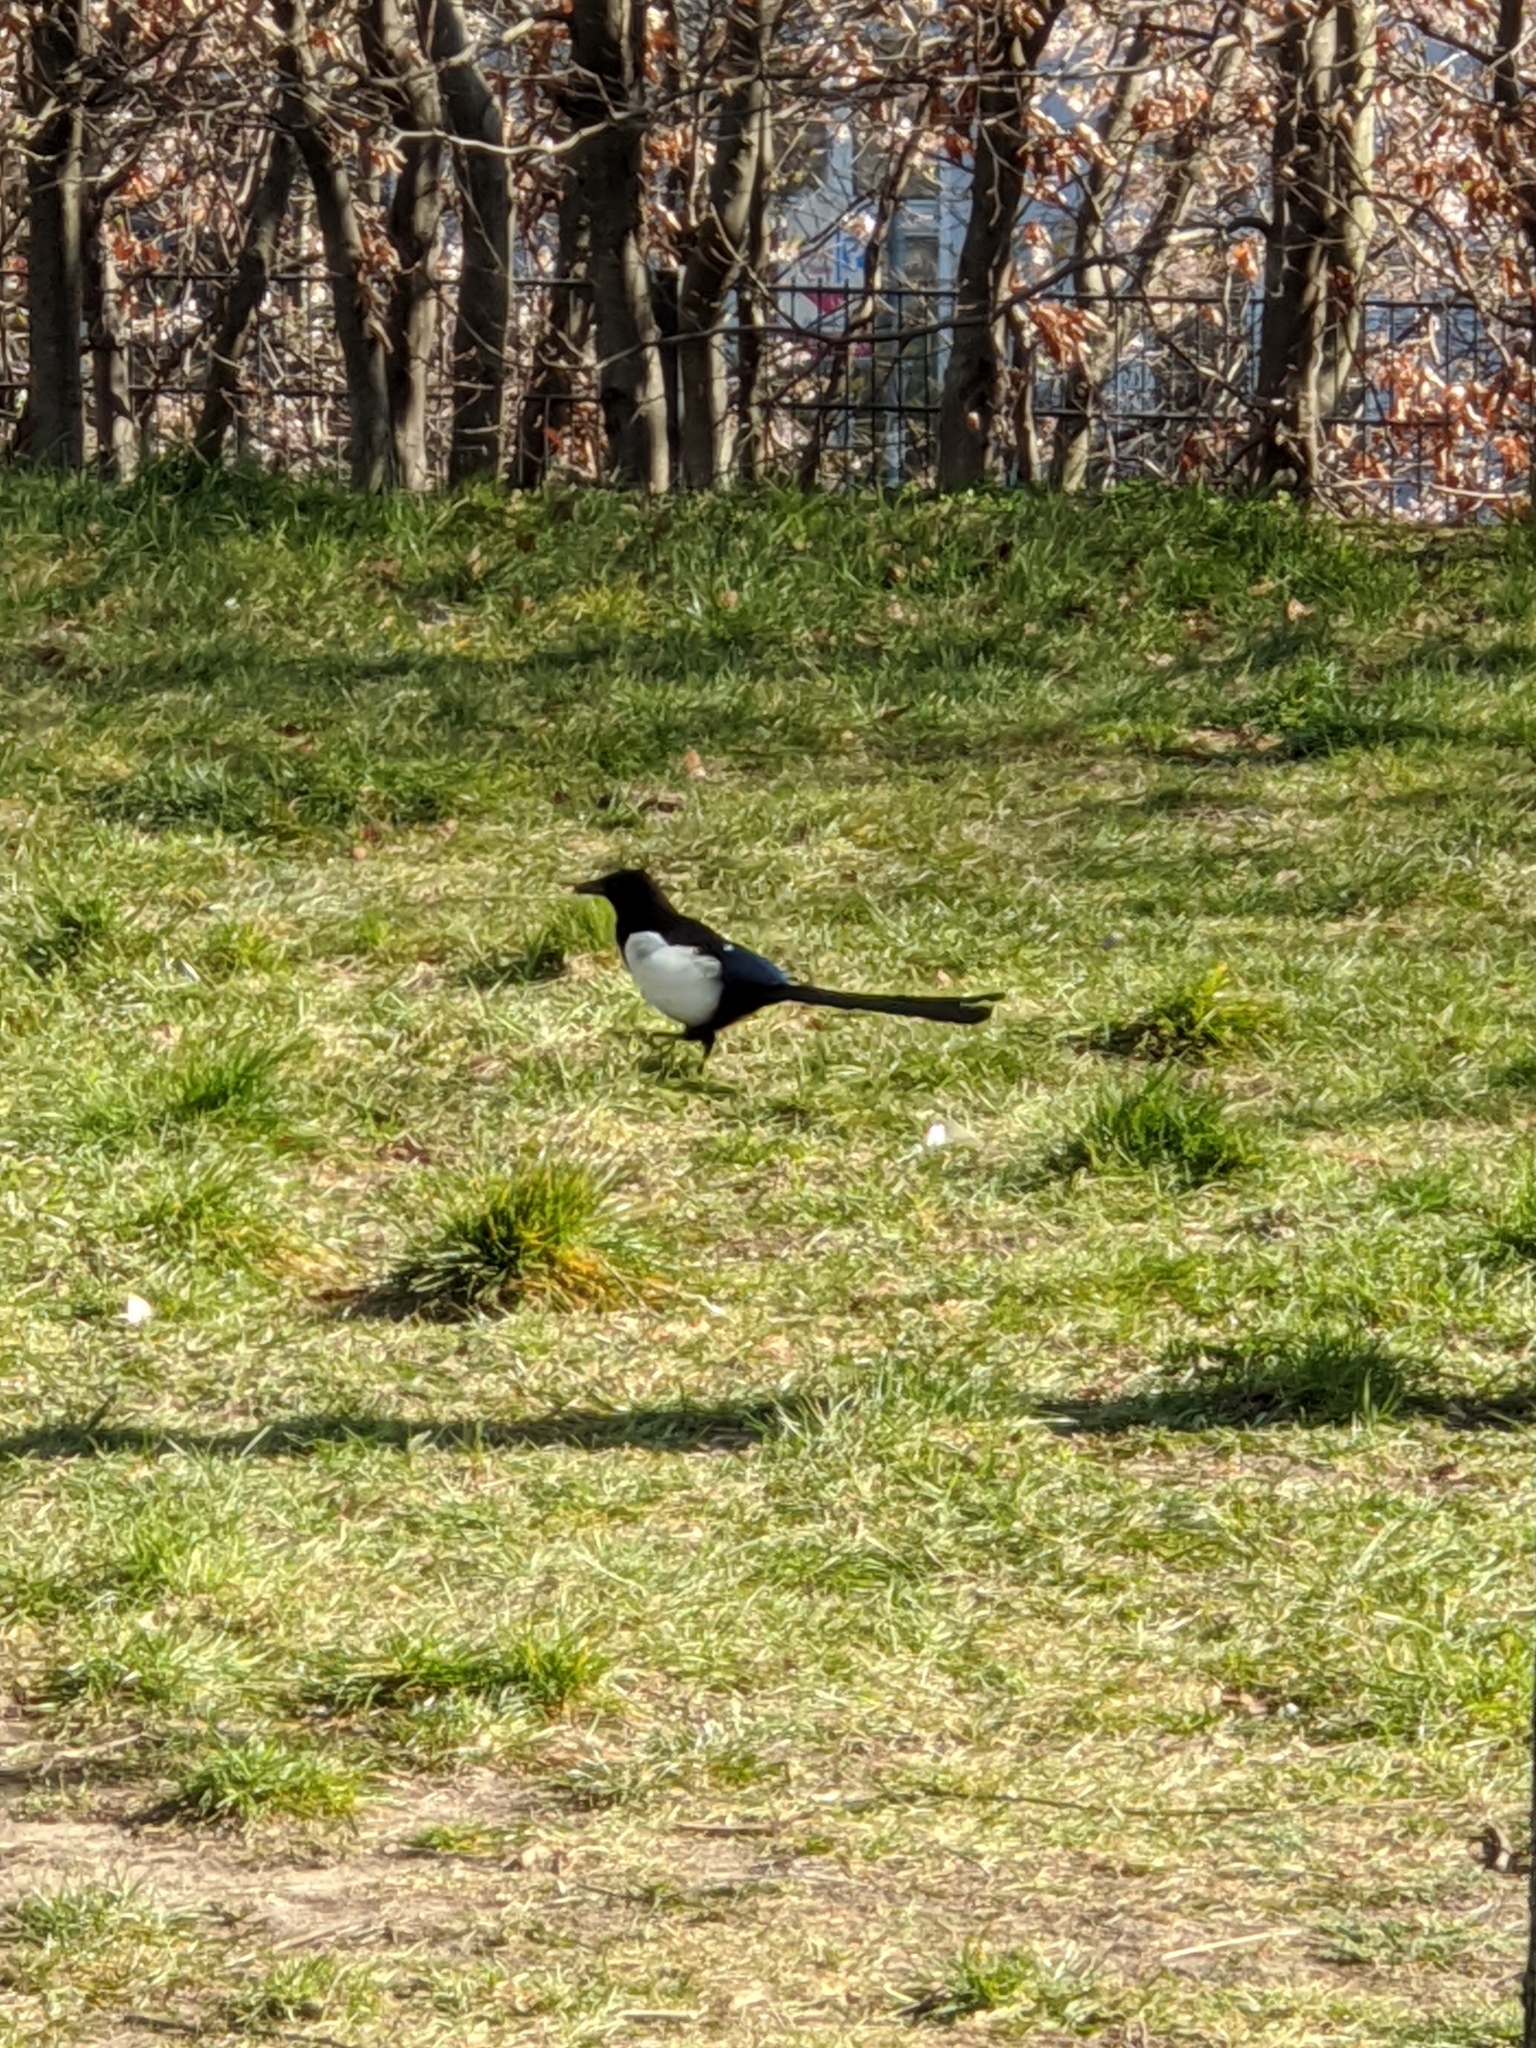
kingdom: Animalia
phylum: Chordata
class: Aves
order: Passeriformes
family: Corvidae
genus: Pica
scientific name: Pica pica
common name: Eurasian magpie
